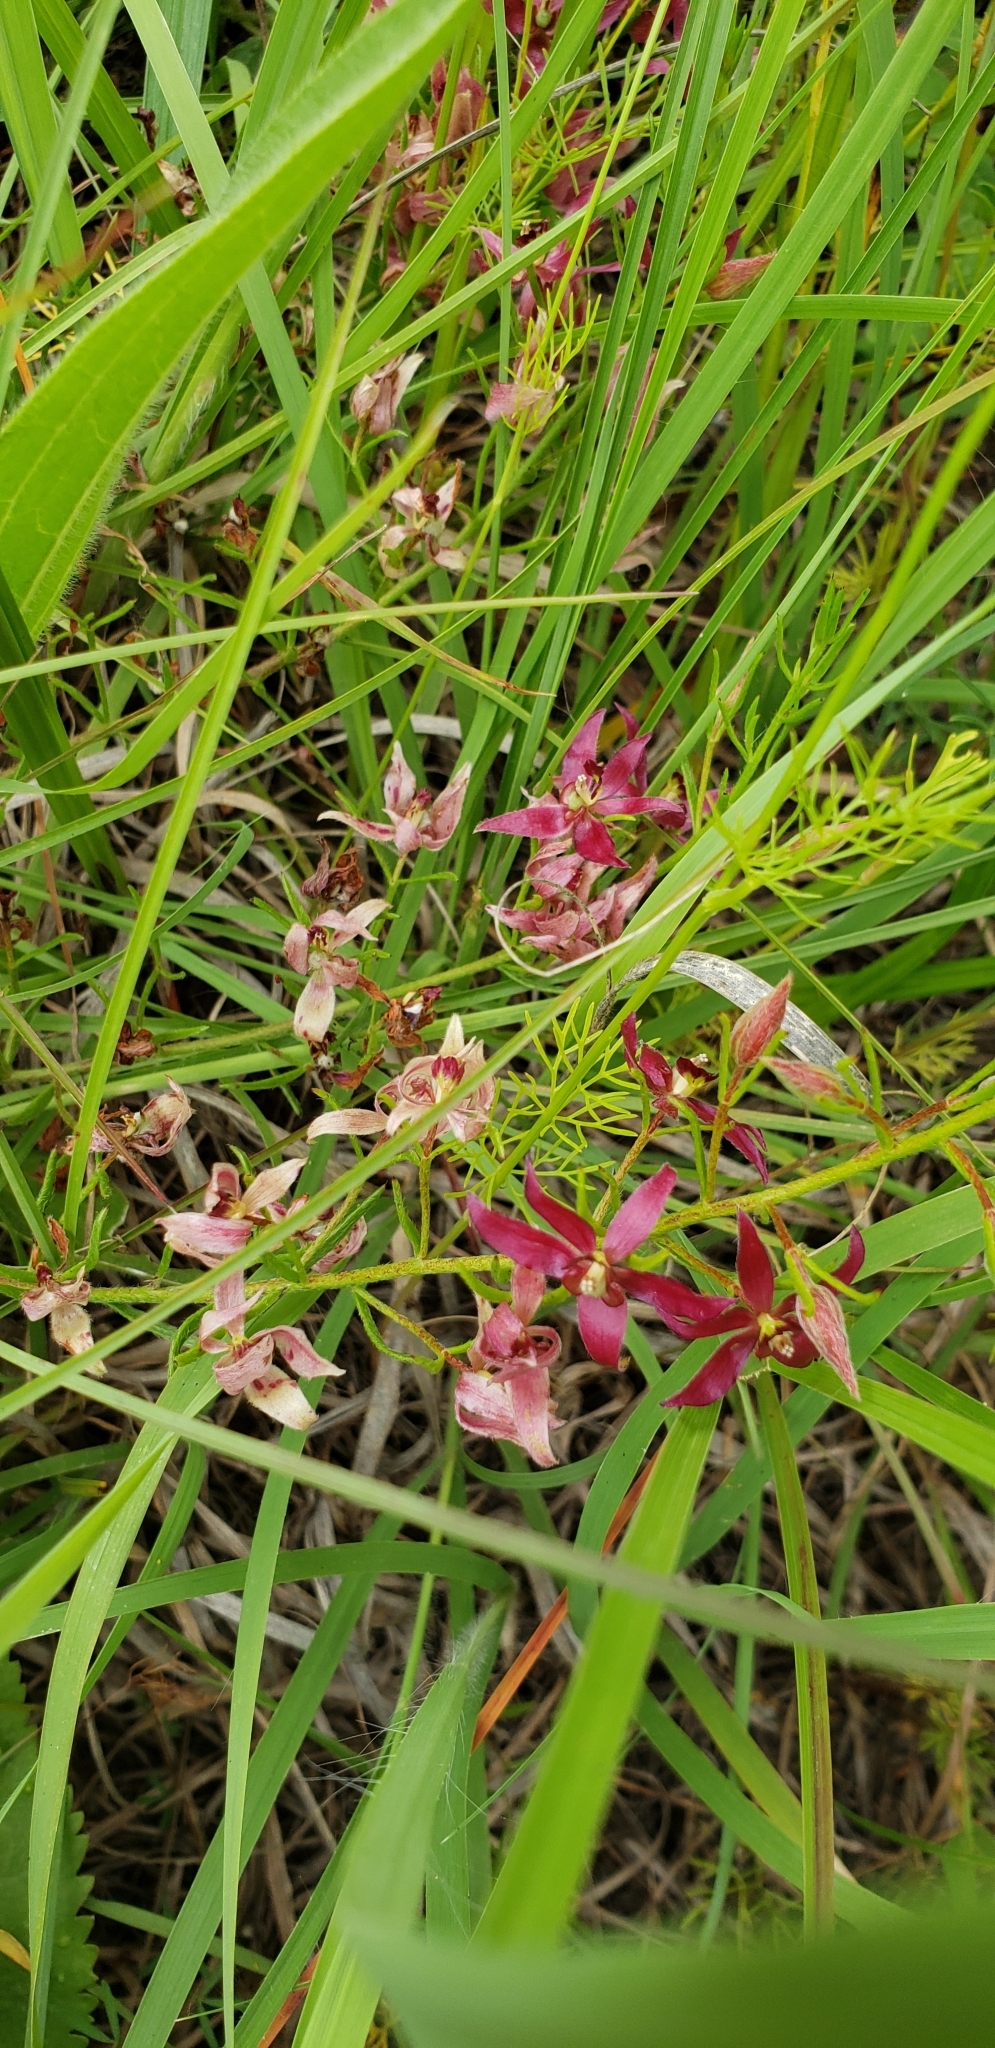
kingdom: Plantae
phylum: Tracheophyta
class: Magnoliopsida
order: Zygophyllales
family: Krameriaceae
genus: Krameria
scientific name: Krameria lanceolata
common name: Ratany
